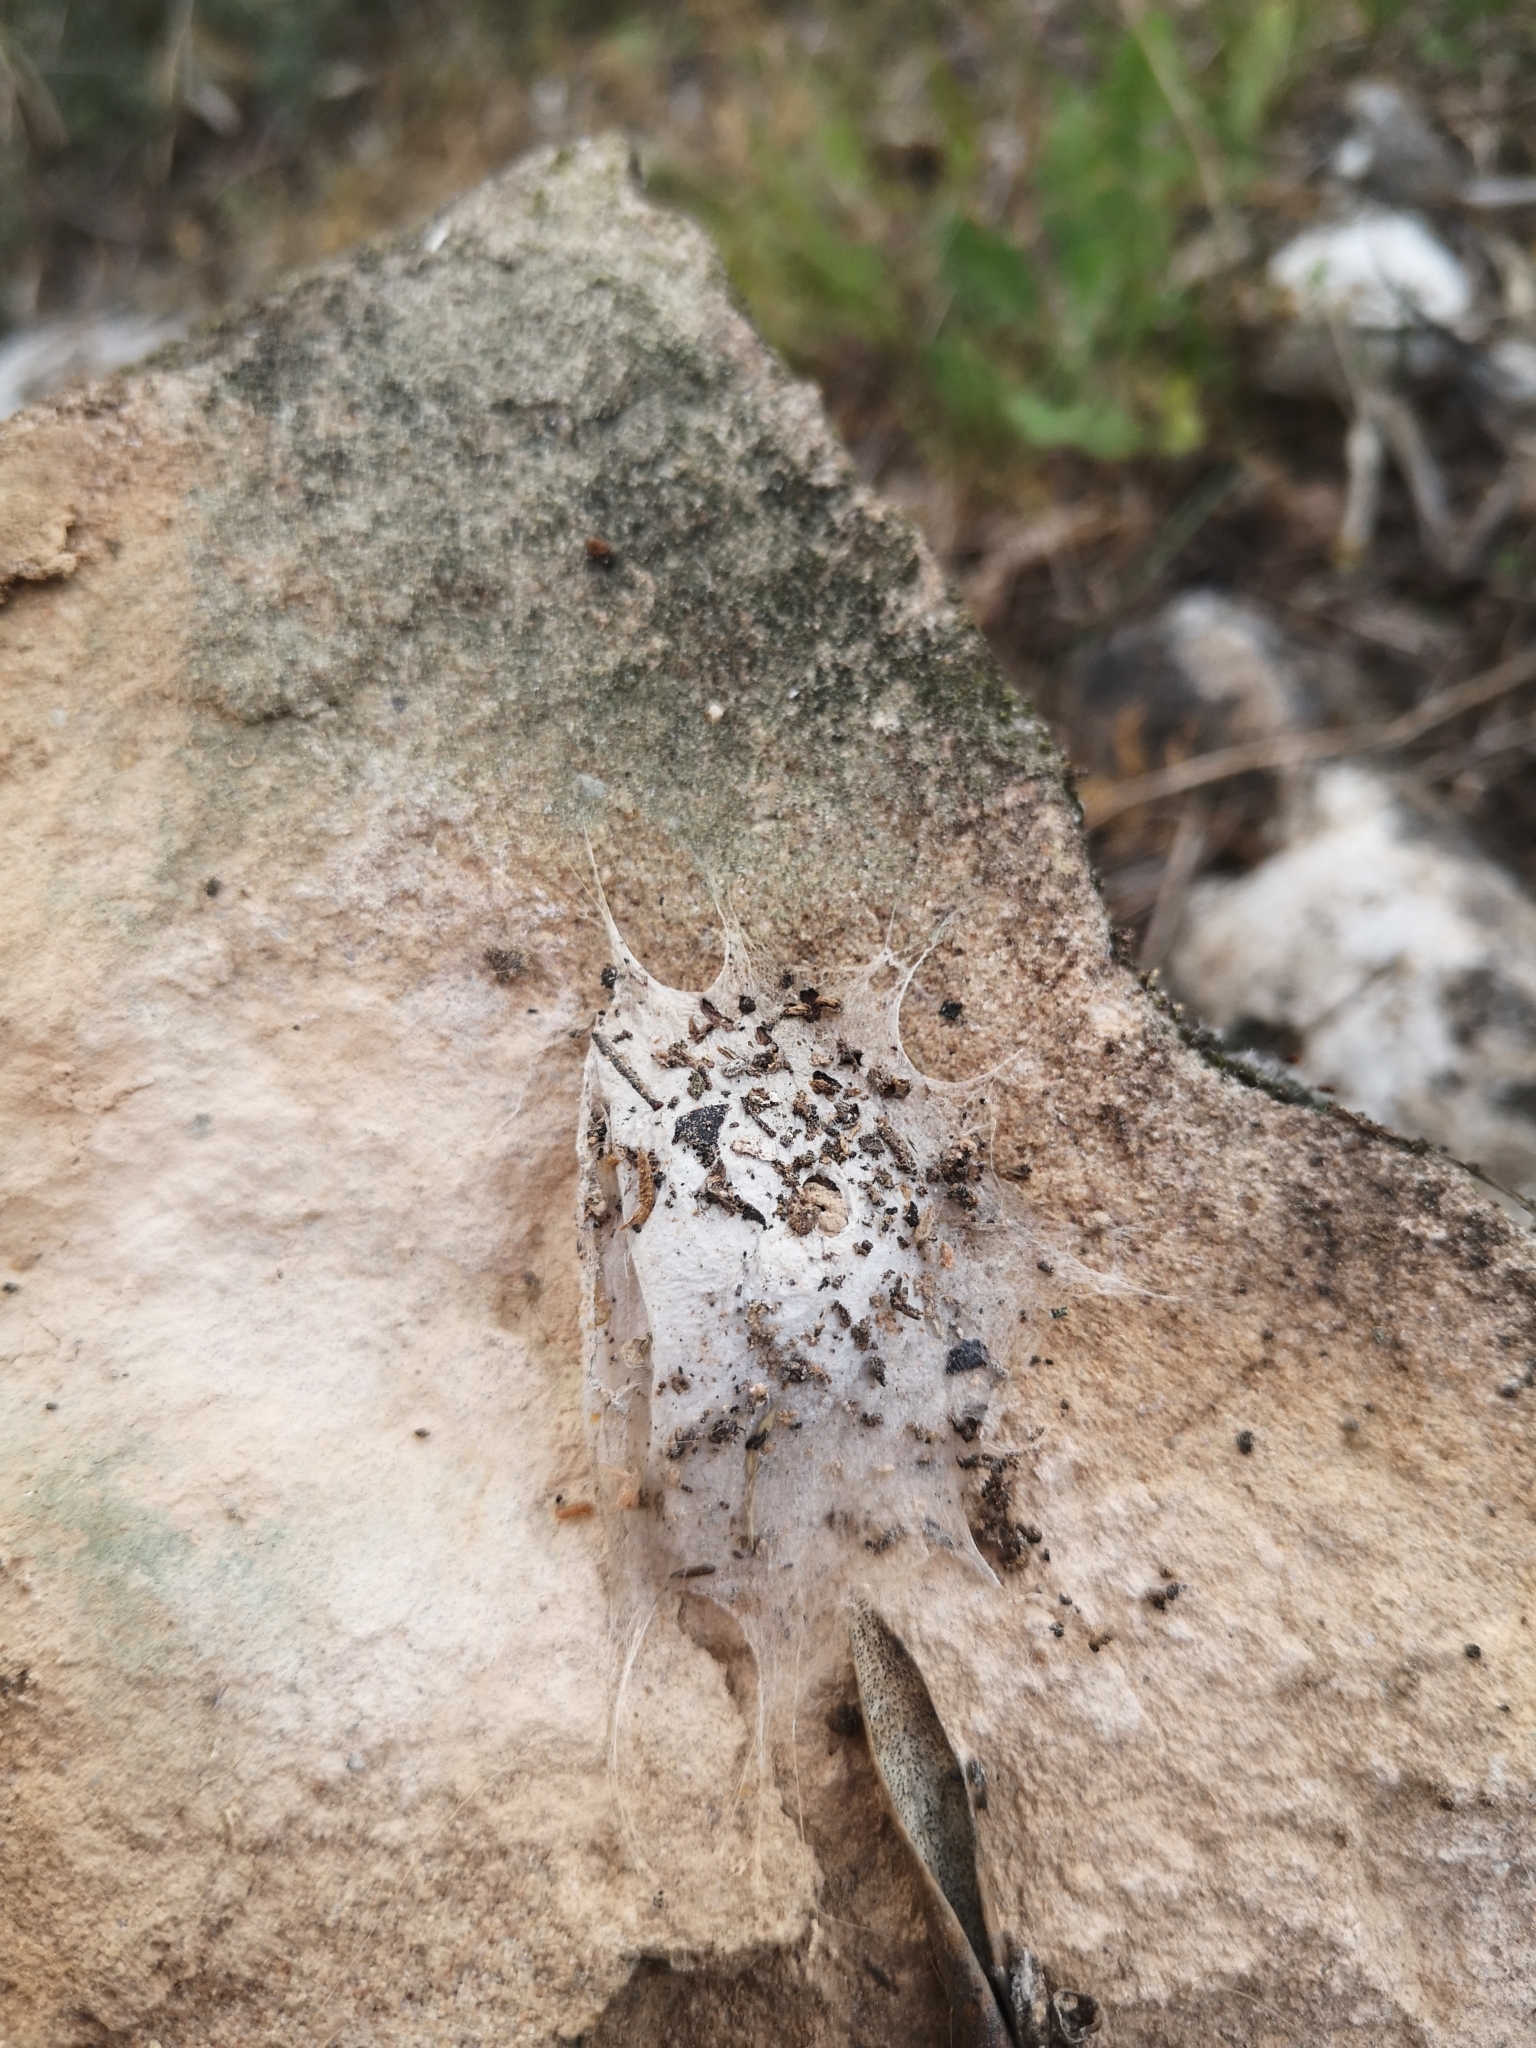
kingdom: Animalia
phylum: Arthropoda
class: Arachnida
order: Araneae
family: Oecobiidae
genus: Uroctea
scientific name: Uroctea durandi
